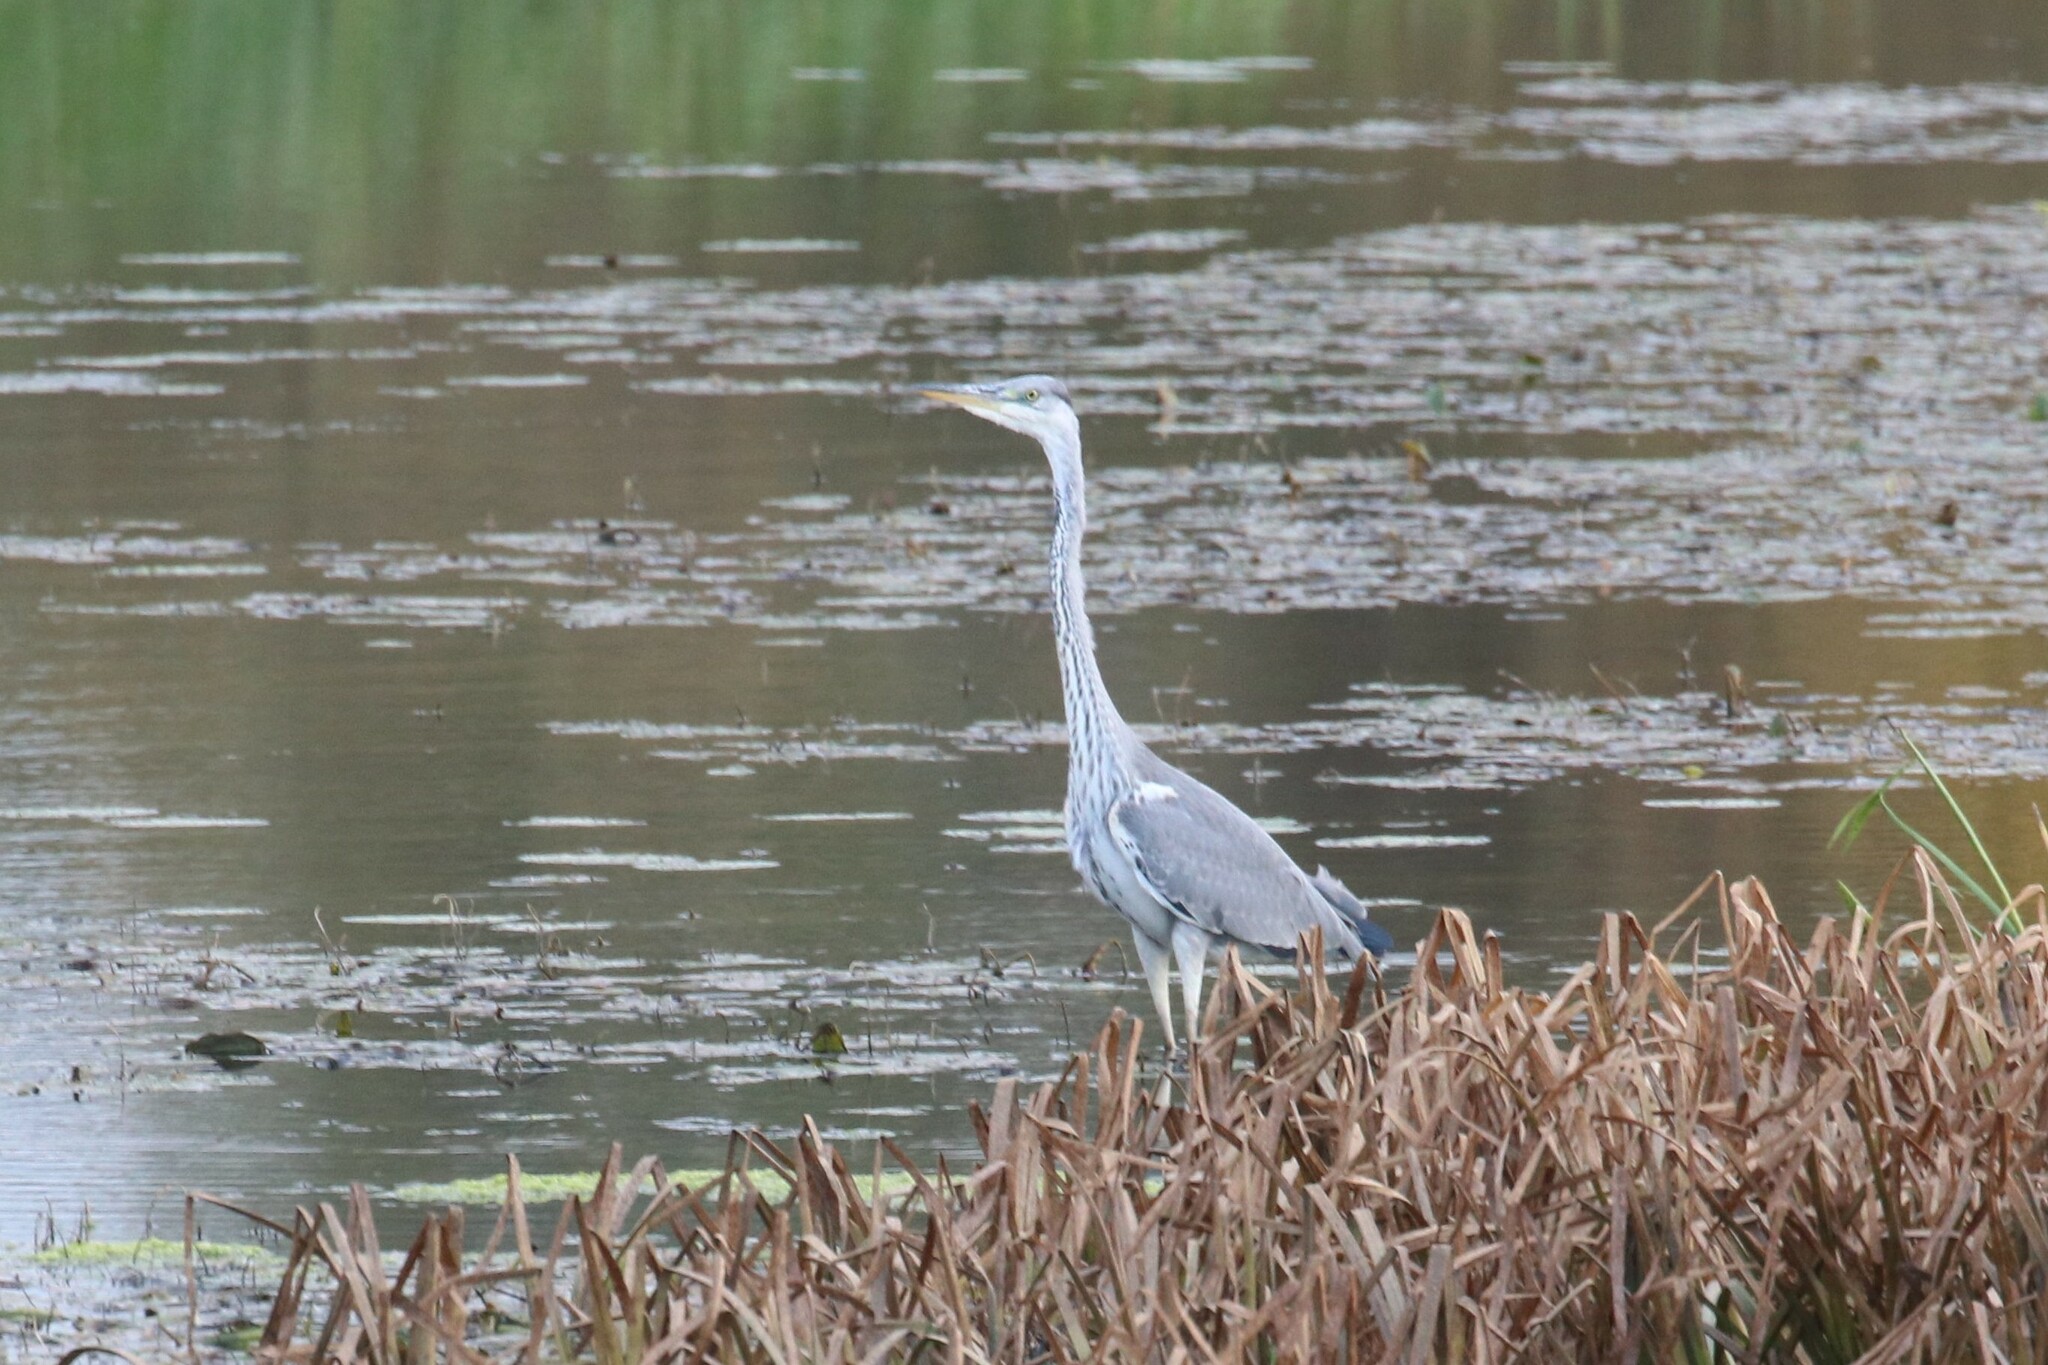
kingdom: Animalia
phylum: Chordata
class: Aves
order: Pelecaniformes
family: Ardeidae
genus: Ardea
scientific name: Ardea cinerea
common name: Grey heron
